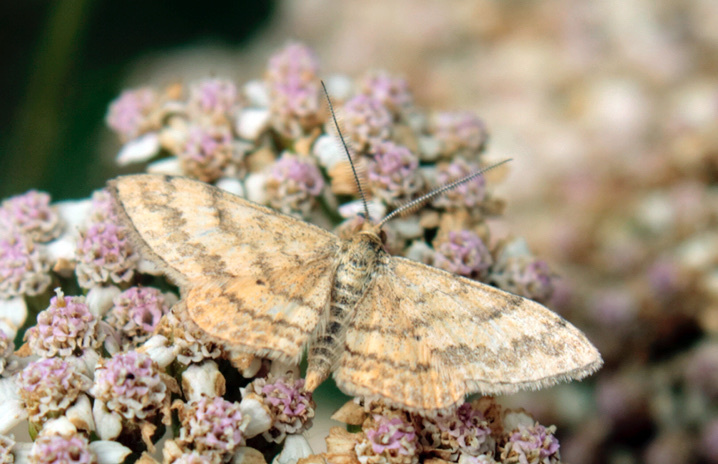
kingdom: Animalia
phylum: Arthropoda
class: Insecta
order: Lepidoptera
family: Geometridae
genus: Scopula
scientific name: Scopula rubraria
